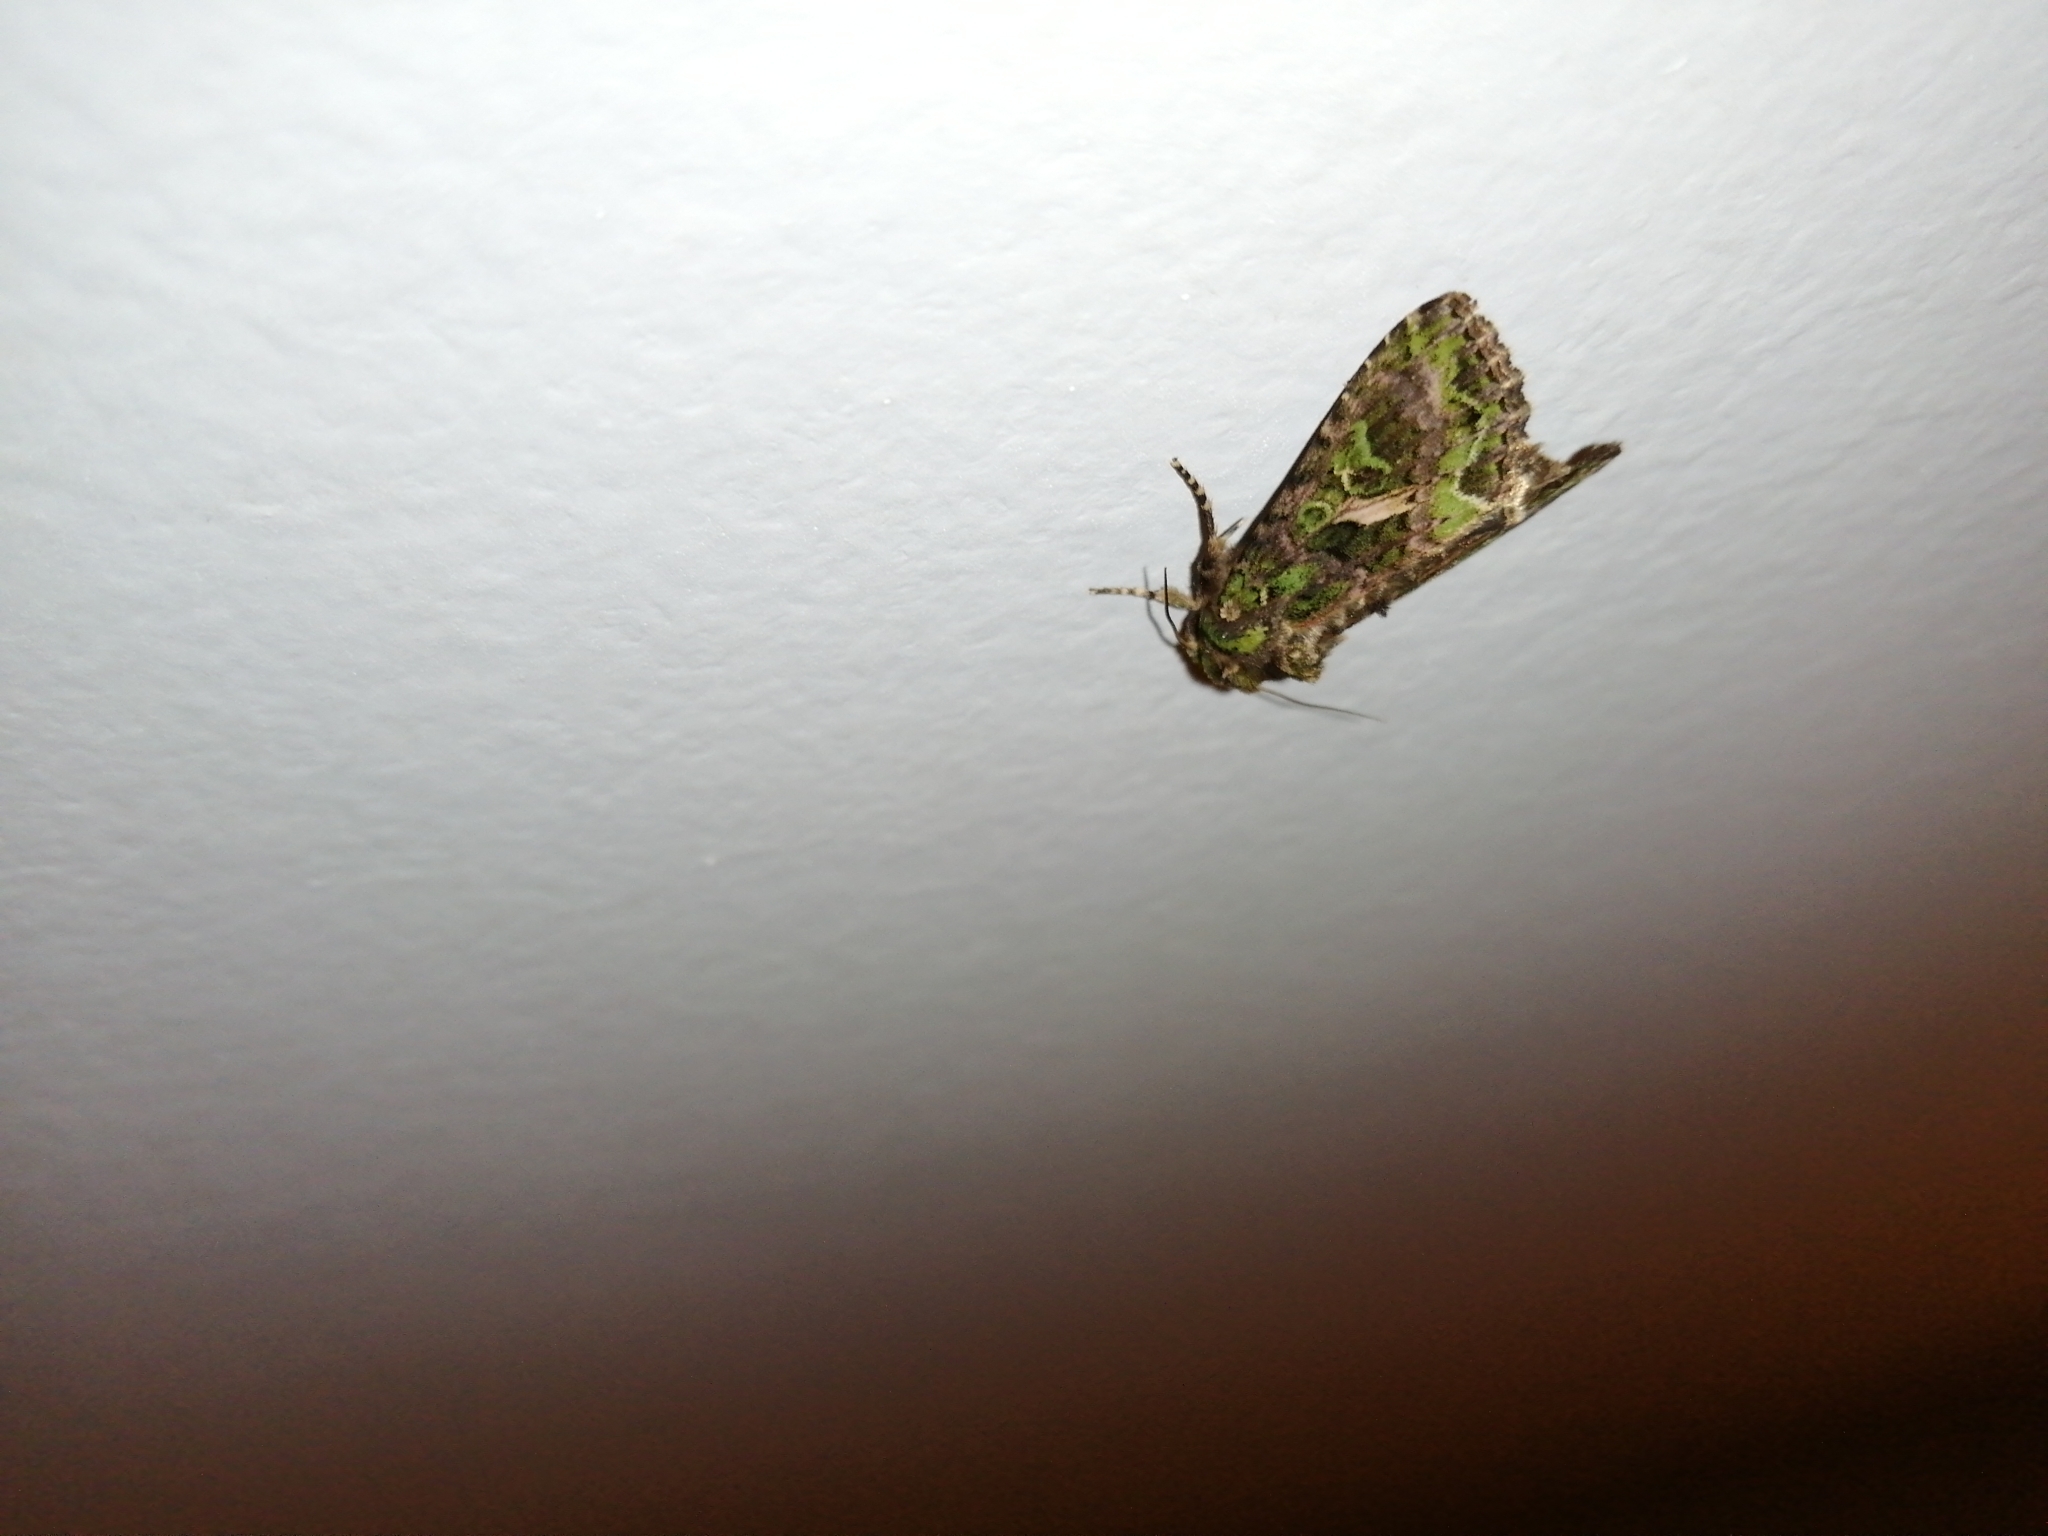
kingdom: Animalia
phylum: Arthropoda
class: Insecta
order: Lepidoptera
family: Noctuidae
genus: Trachea
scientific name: Trachea atriplicis
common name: Orache moth
